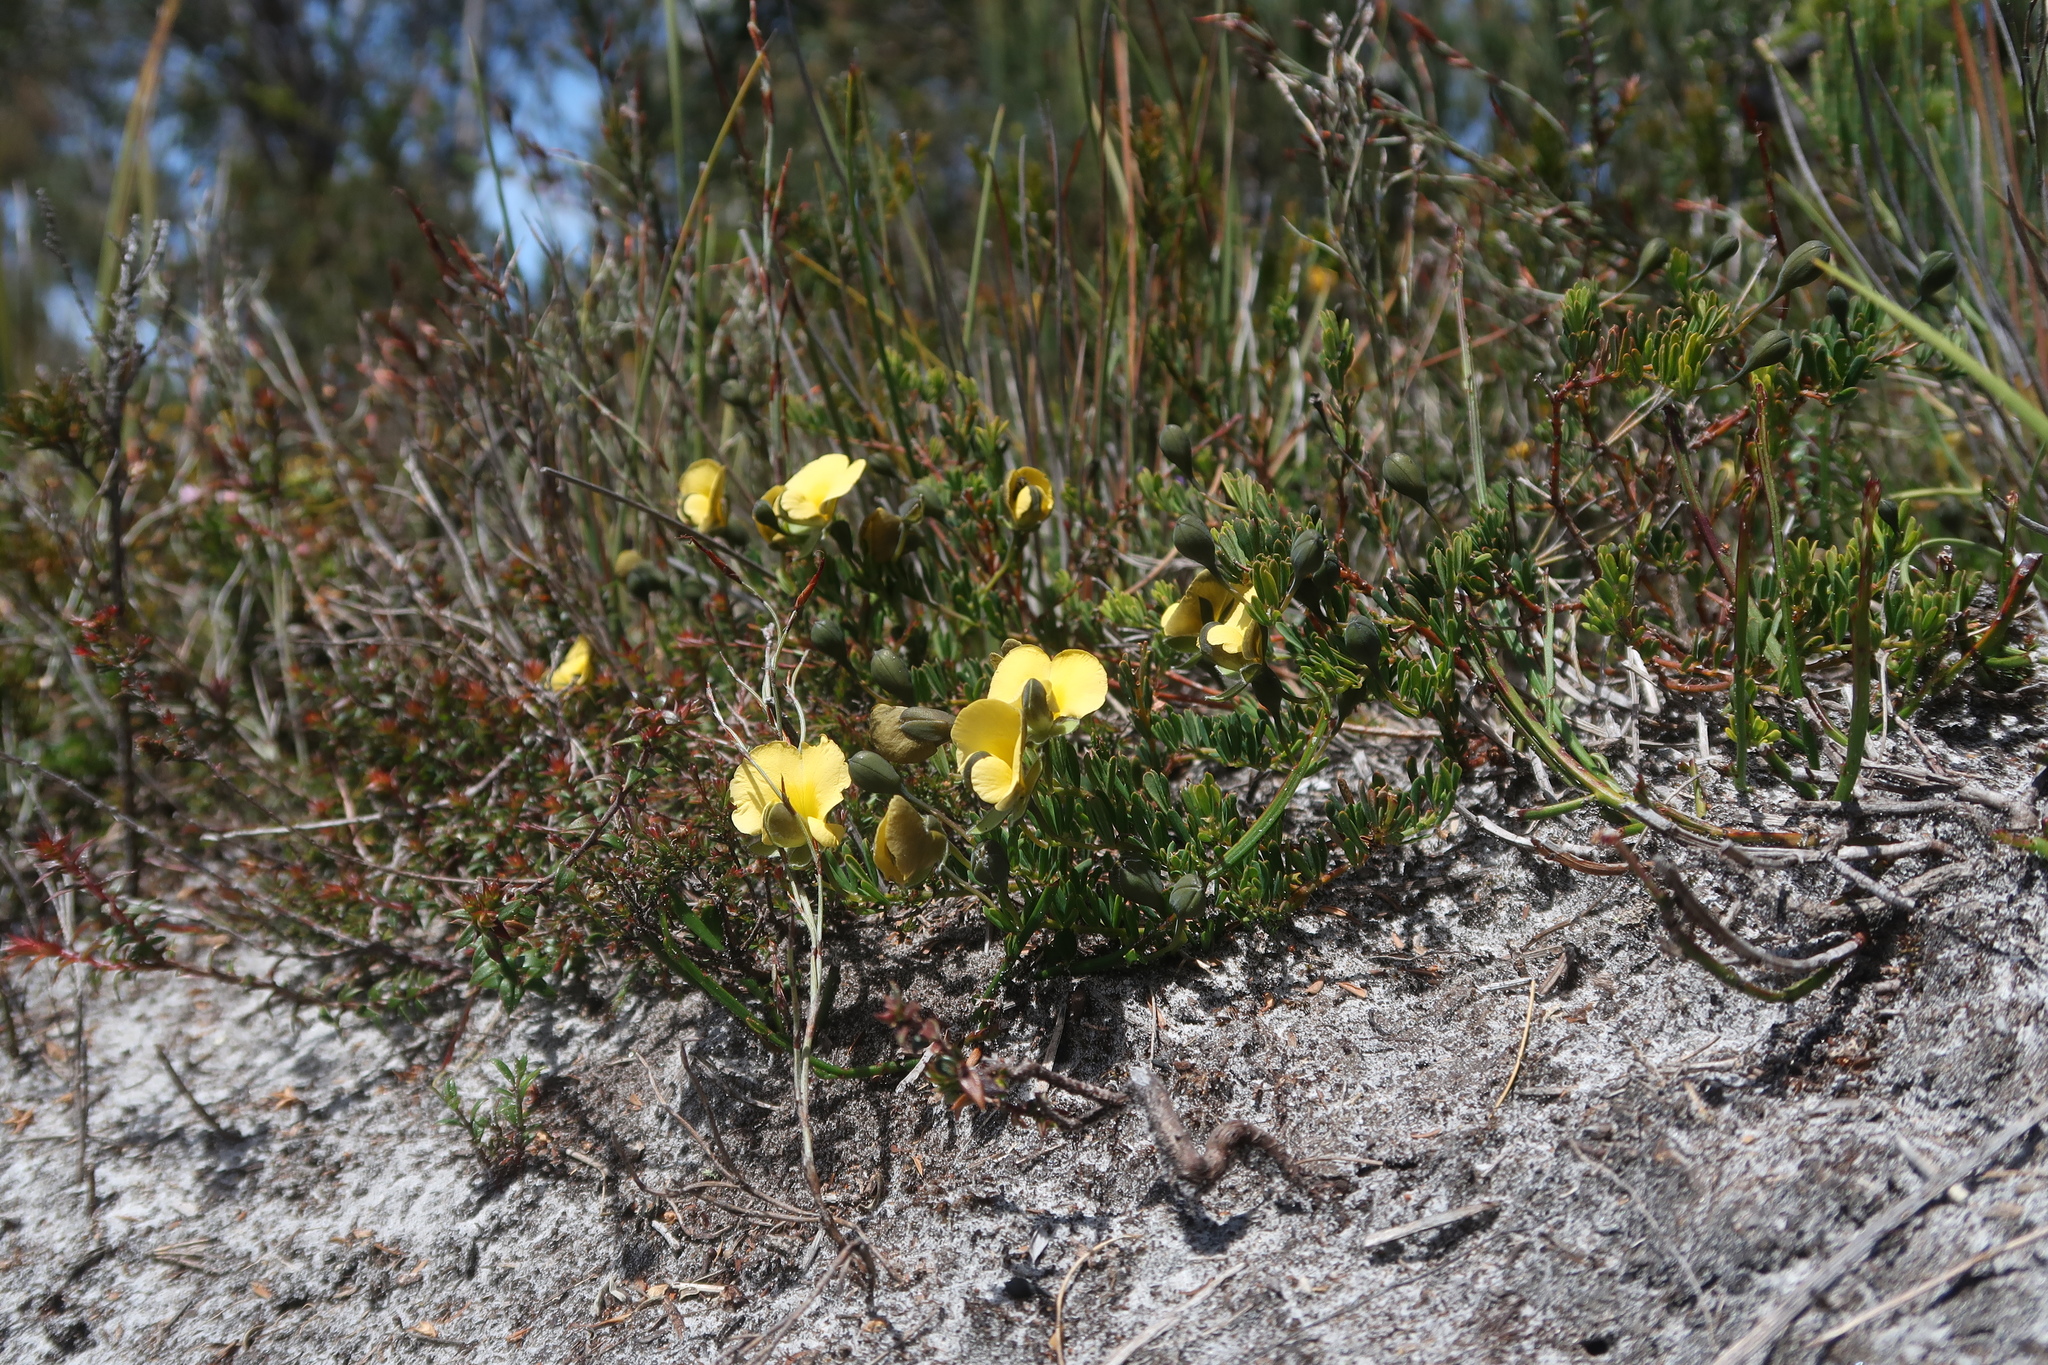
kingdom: Plantae
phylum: Tracheophyta
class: Magnoliopsida
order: Fabales
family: Fabaceae
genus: Gompholobium
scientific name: Gompholobium huegelii
